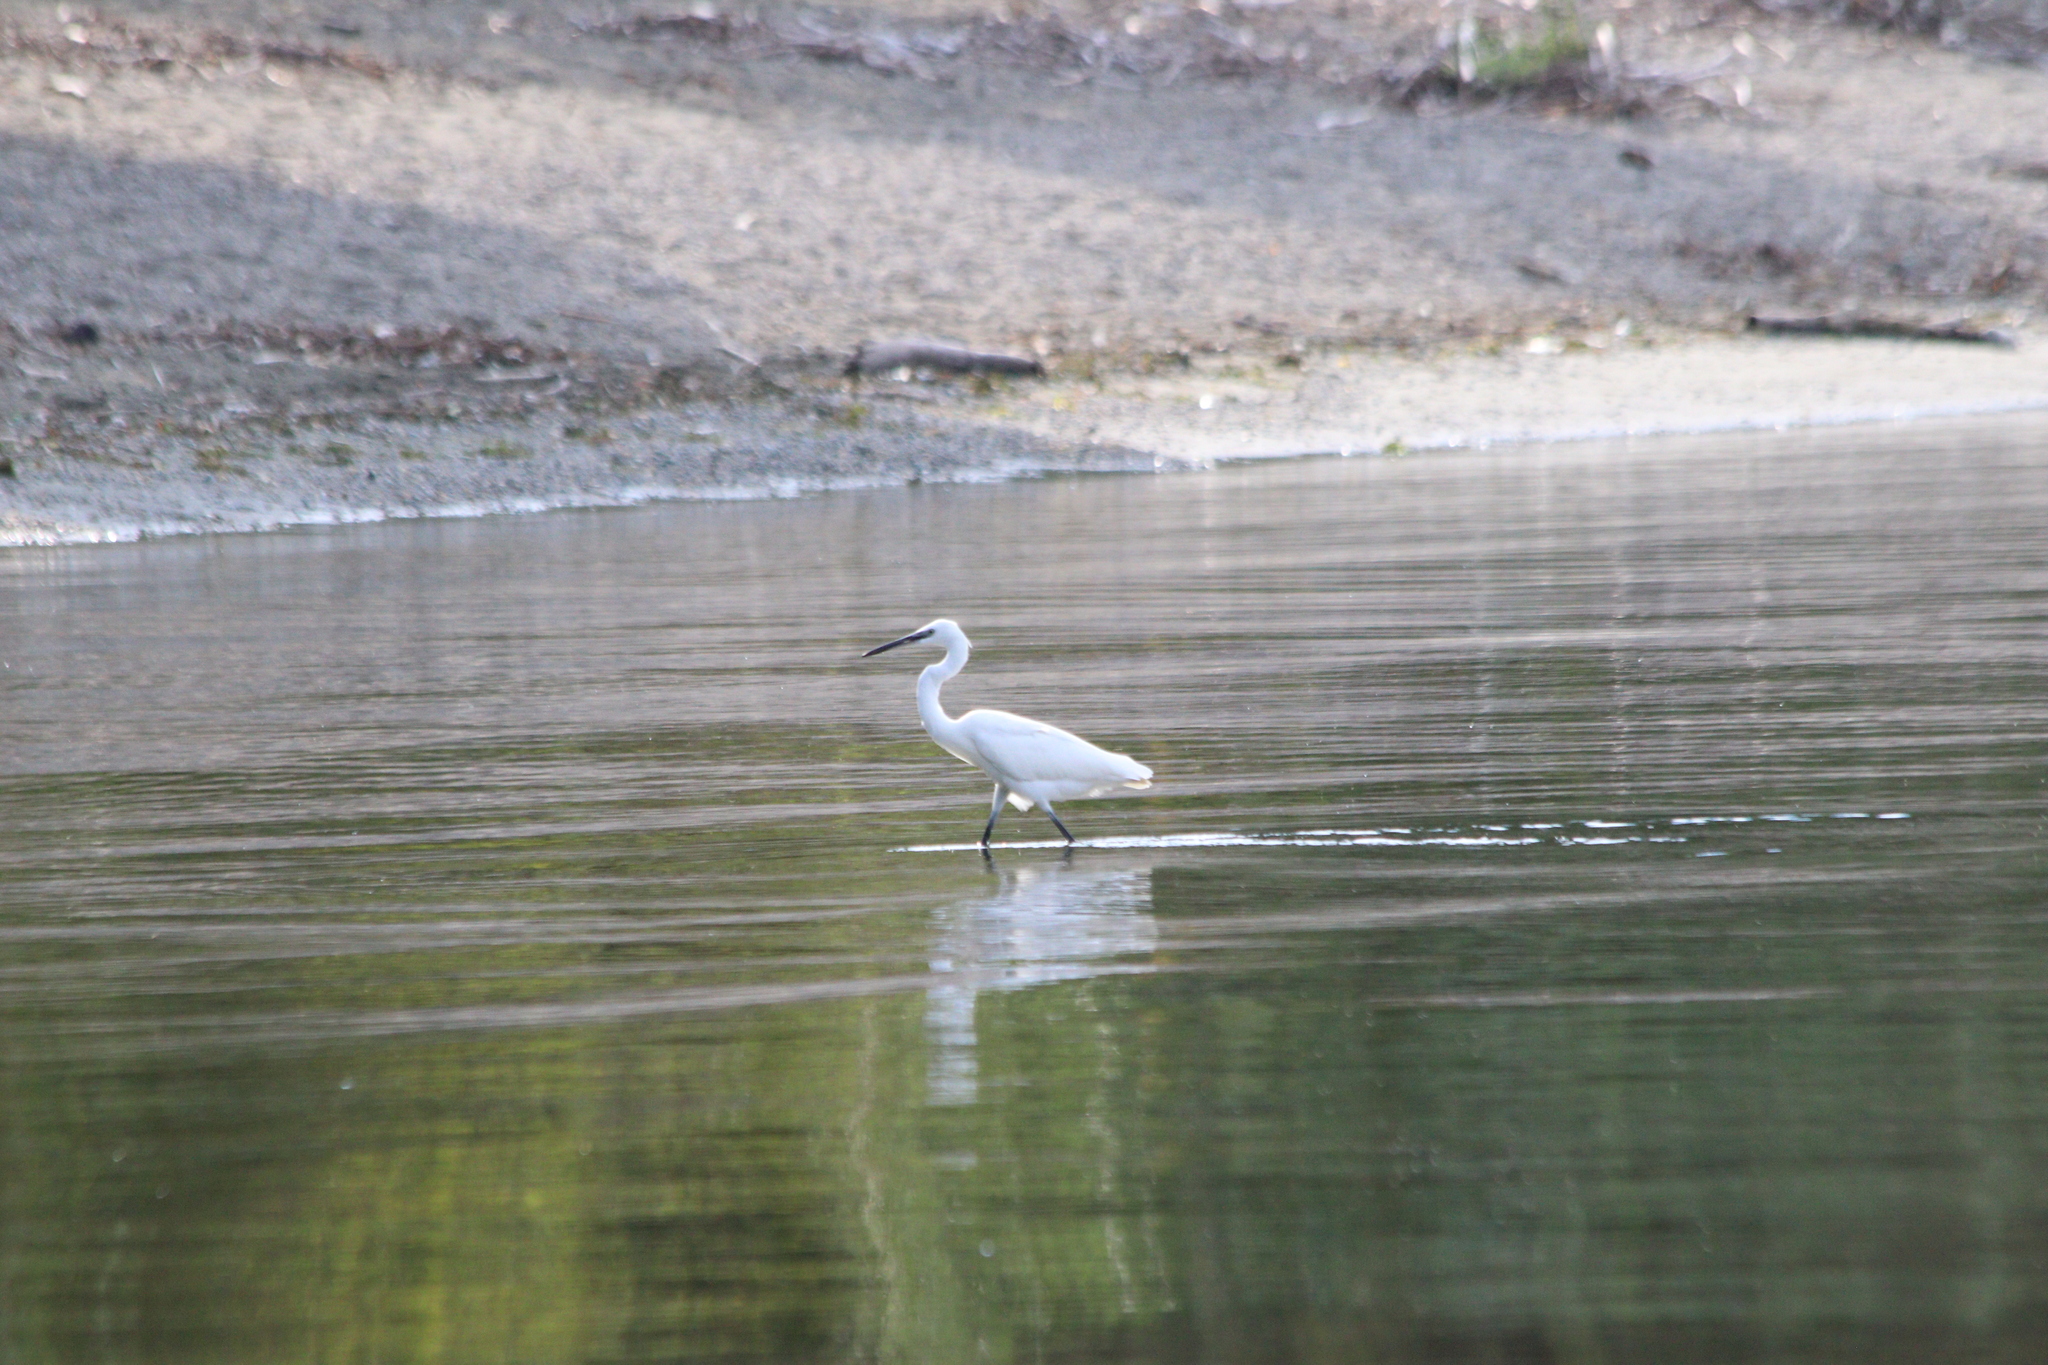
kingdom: Animalia
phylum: Chordata
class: Aves
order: Pelecaniformes
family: Ardeidae
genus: Egretta
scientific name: Egretta garzetta
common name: Little egret
